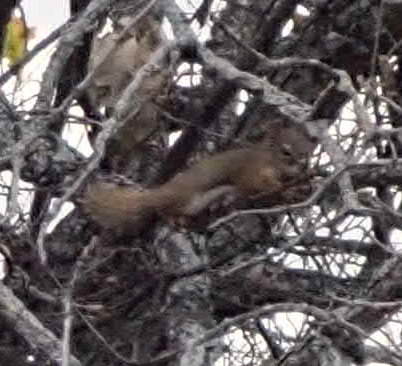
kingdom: Animalia
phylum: Chordata
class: Mammalia
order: Rodentia
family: Sciuridae
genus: Tamiasciurus
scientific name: Tamiasciurus hudsonicus
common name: Red squirrel
